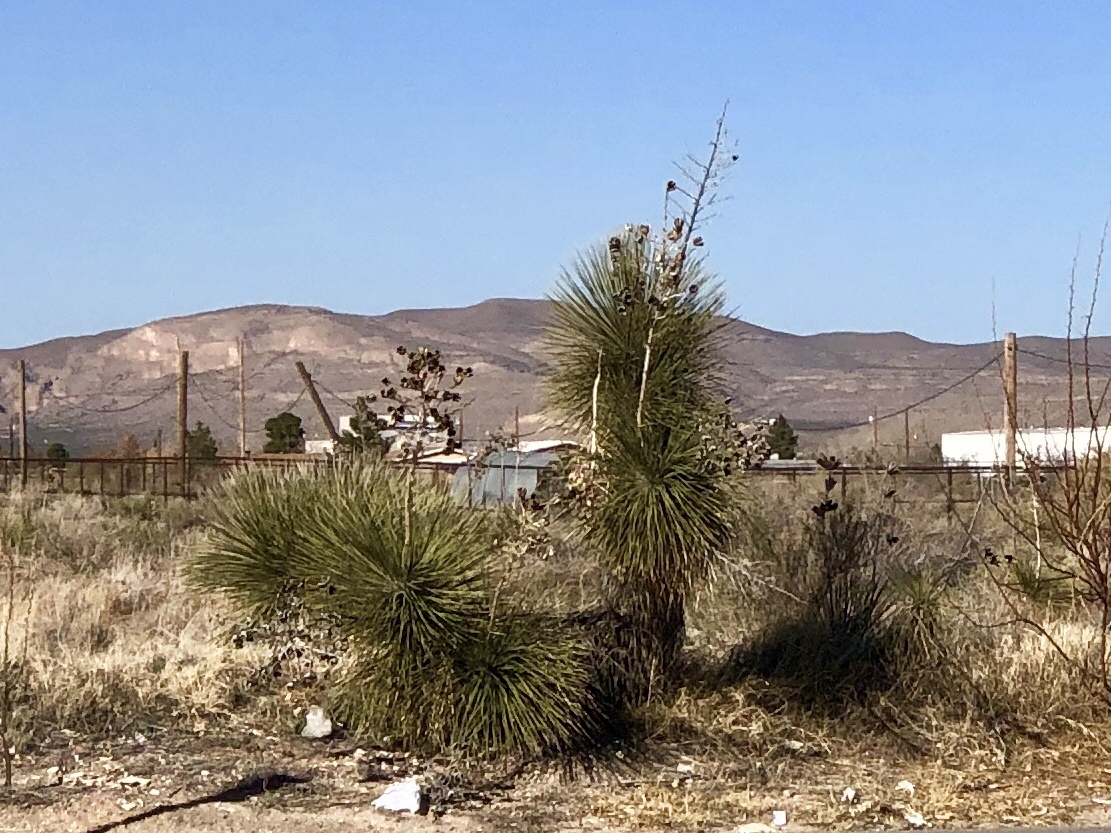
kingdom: Plantae
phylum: Tracheophyta
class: Liliopsida
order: Asparagales
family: Asparagaceae
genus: Yucca
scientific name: Yucca elata
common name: Palmella
